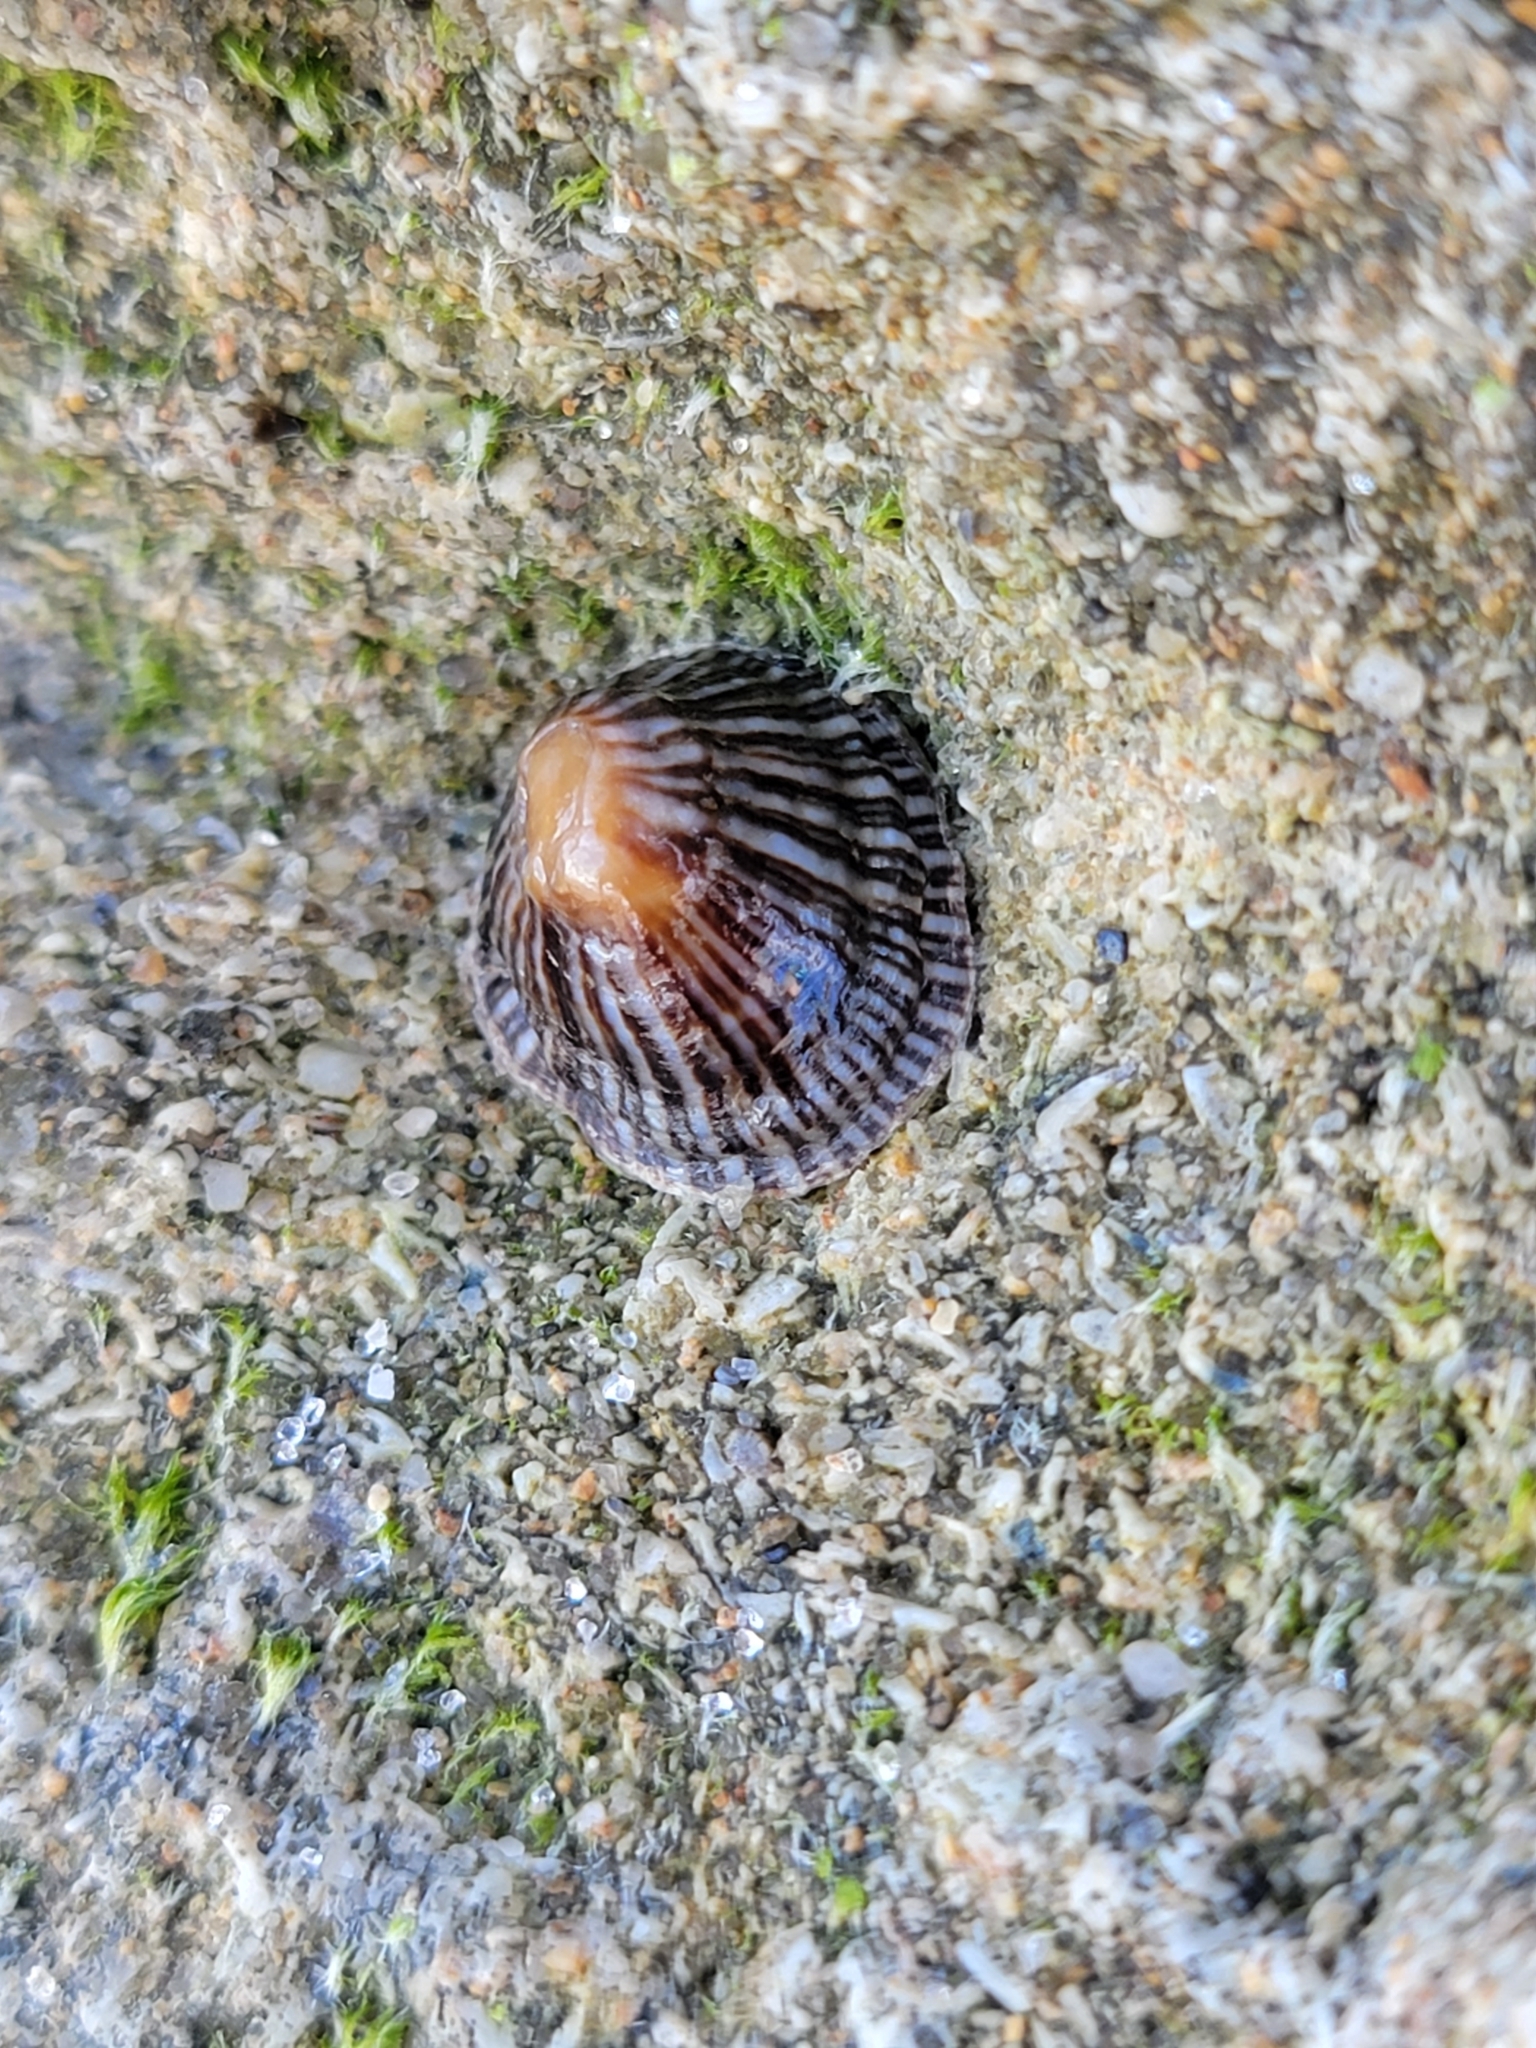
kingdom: Animalia
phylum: Mollusca
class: Gastropoda
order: Siphonariida
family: Siphonariidae
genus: Siphonaria
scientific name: Siphonaria naufragum
